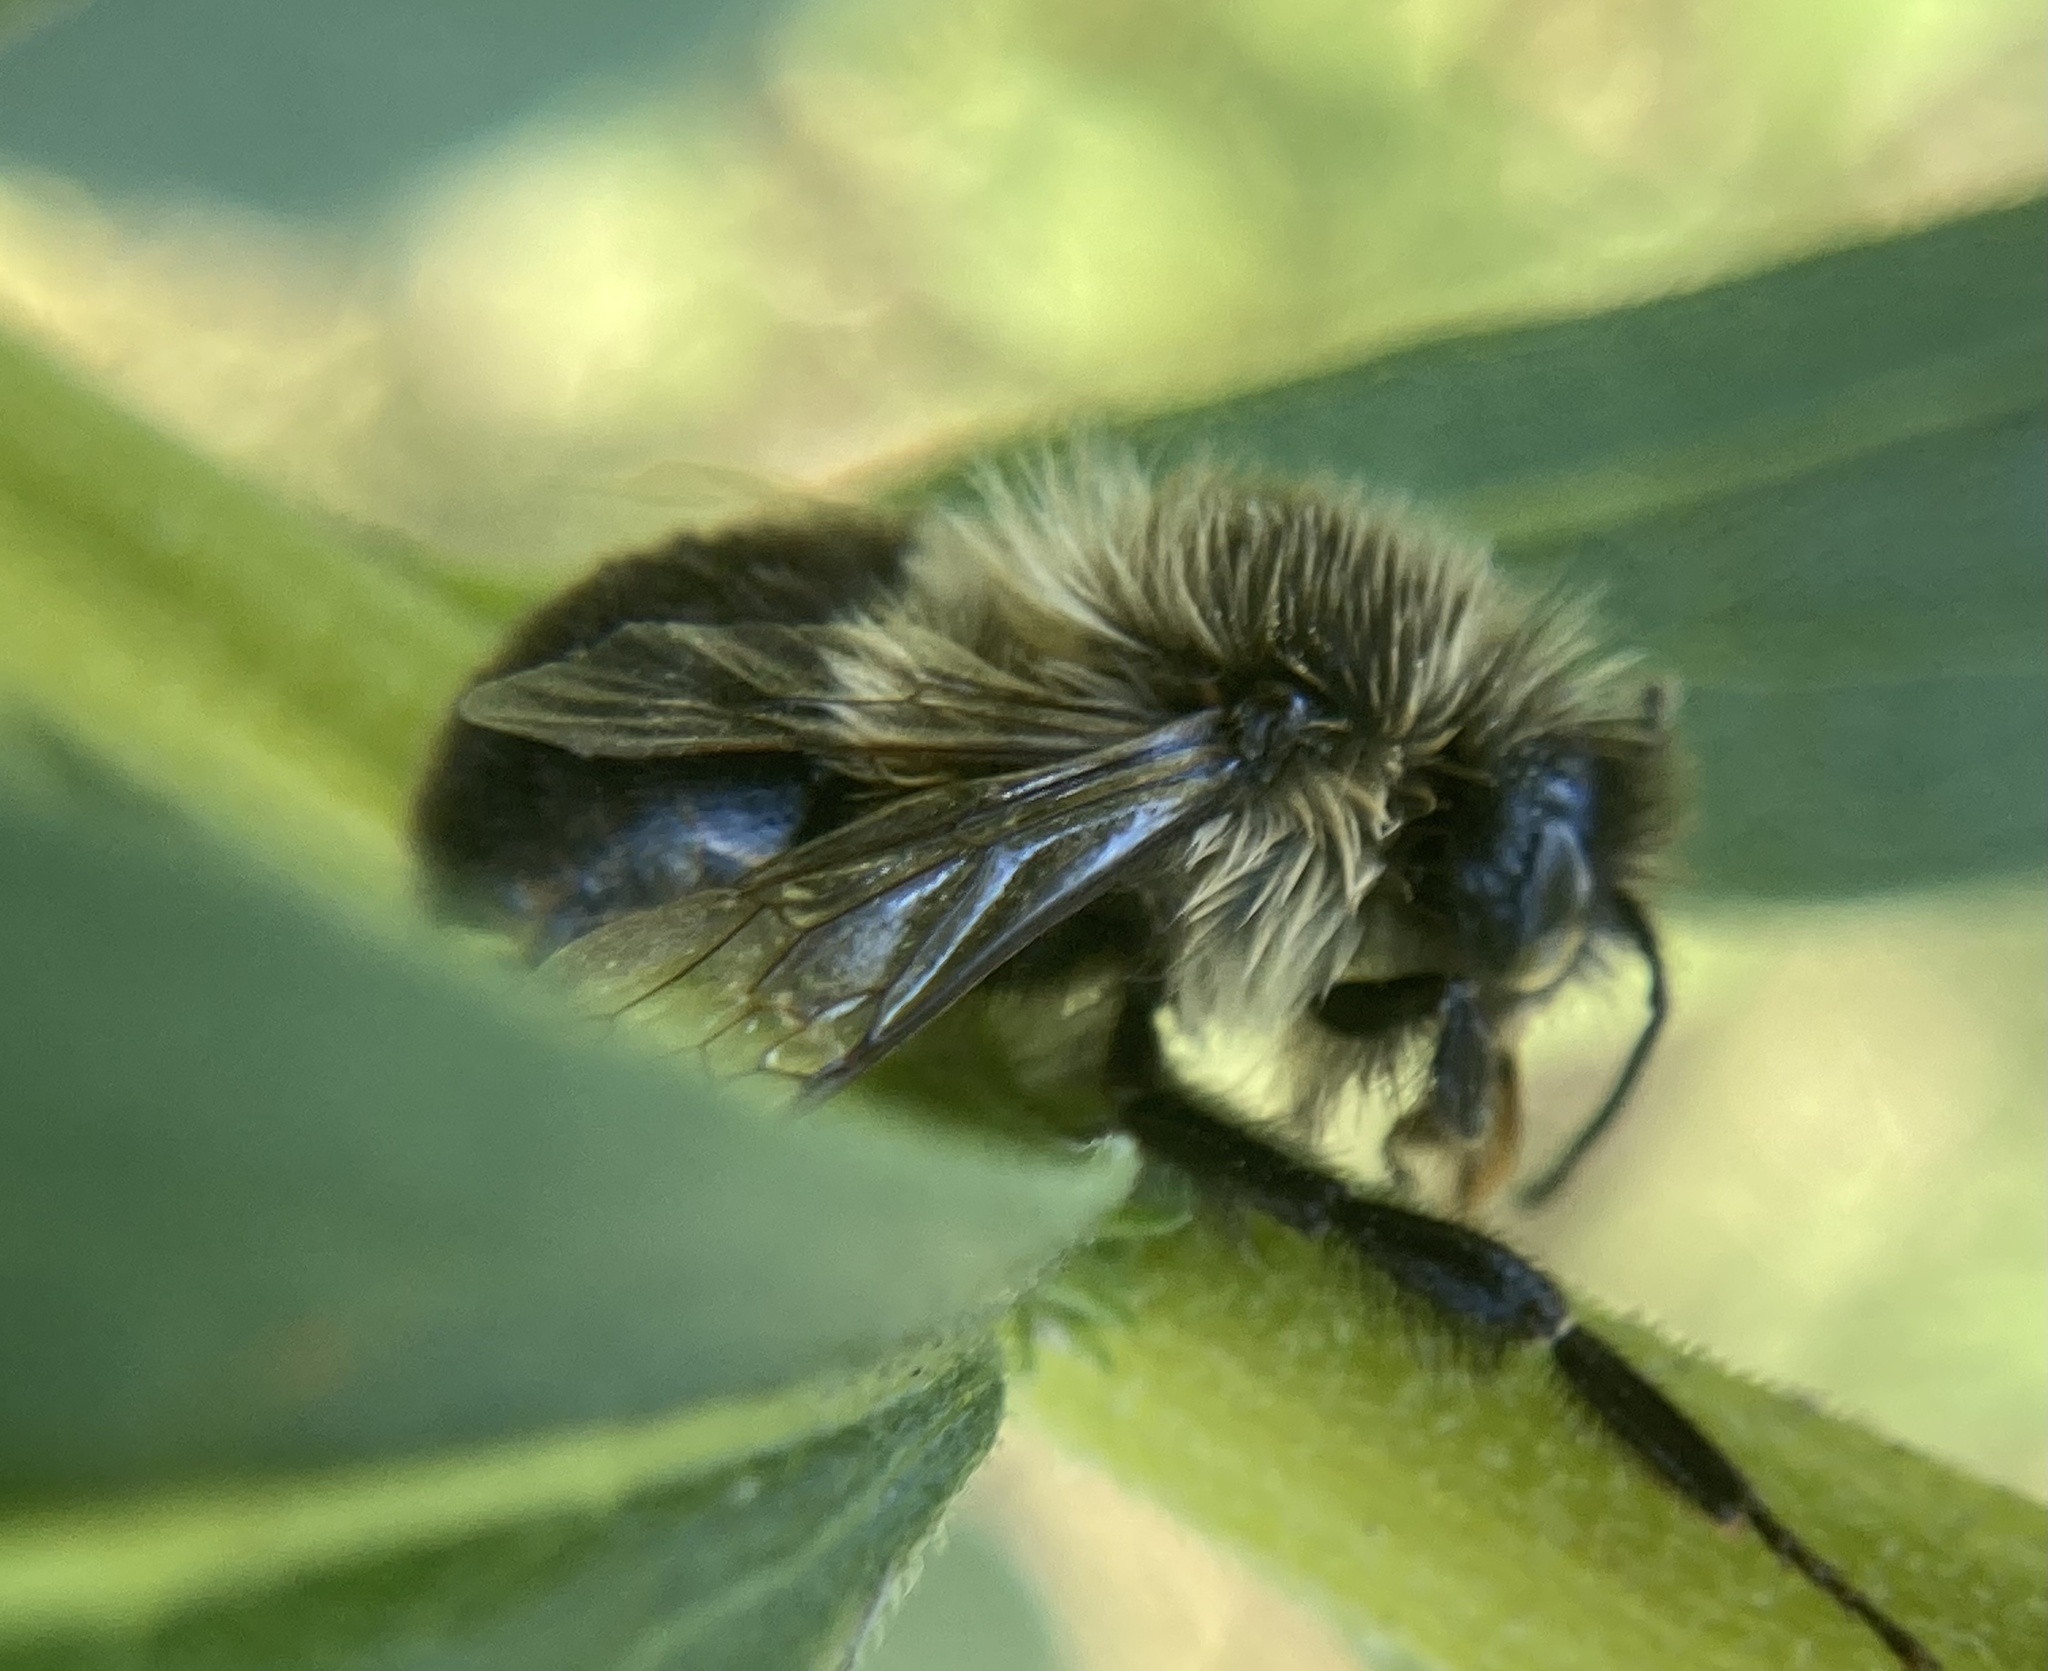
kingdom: Animalia
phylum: Arthropoda
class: Insecta
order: Hymenoptera
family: Apidae
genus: Bombus
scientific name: Bombus impatiens
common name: Common eastern bumble bee
